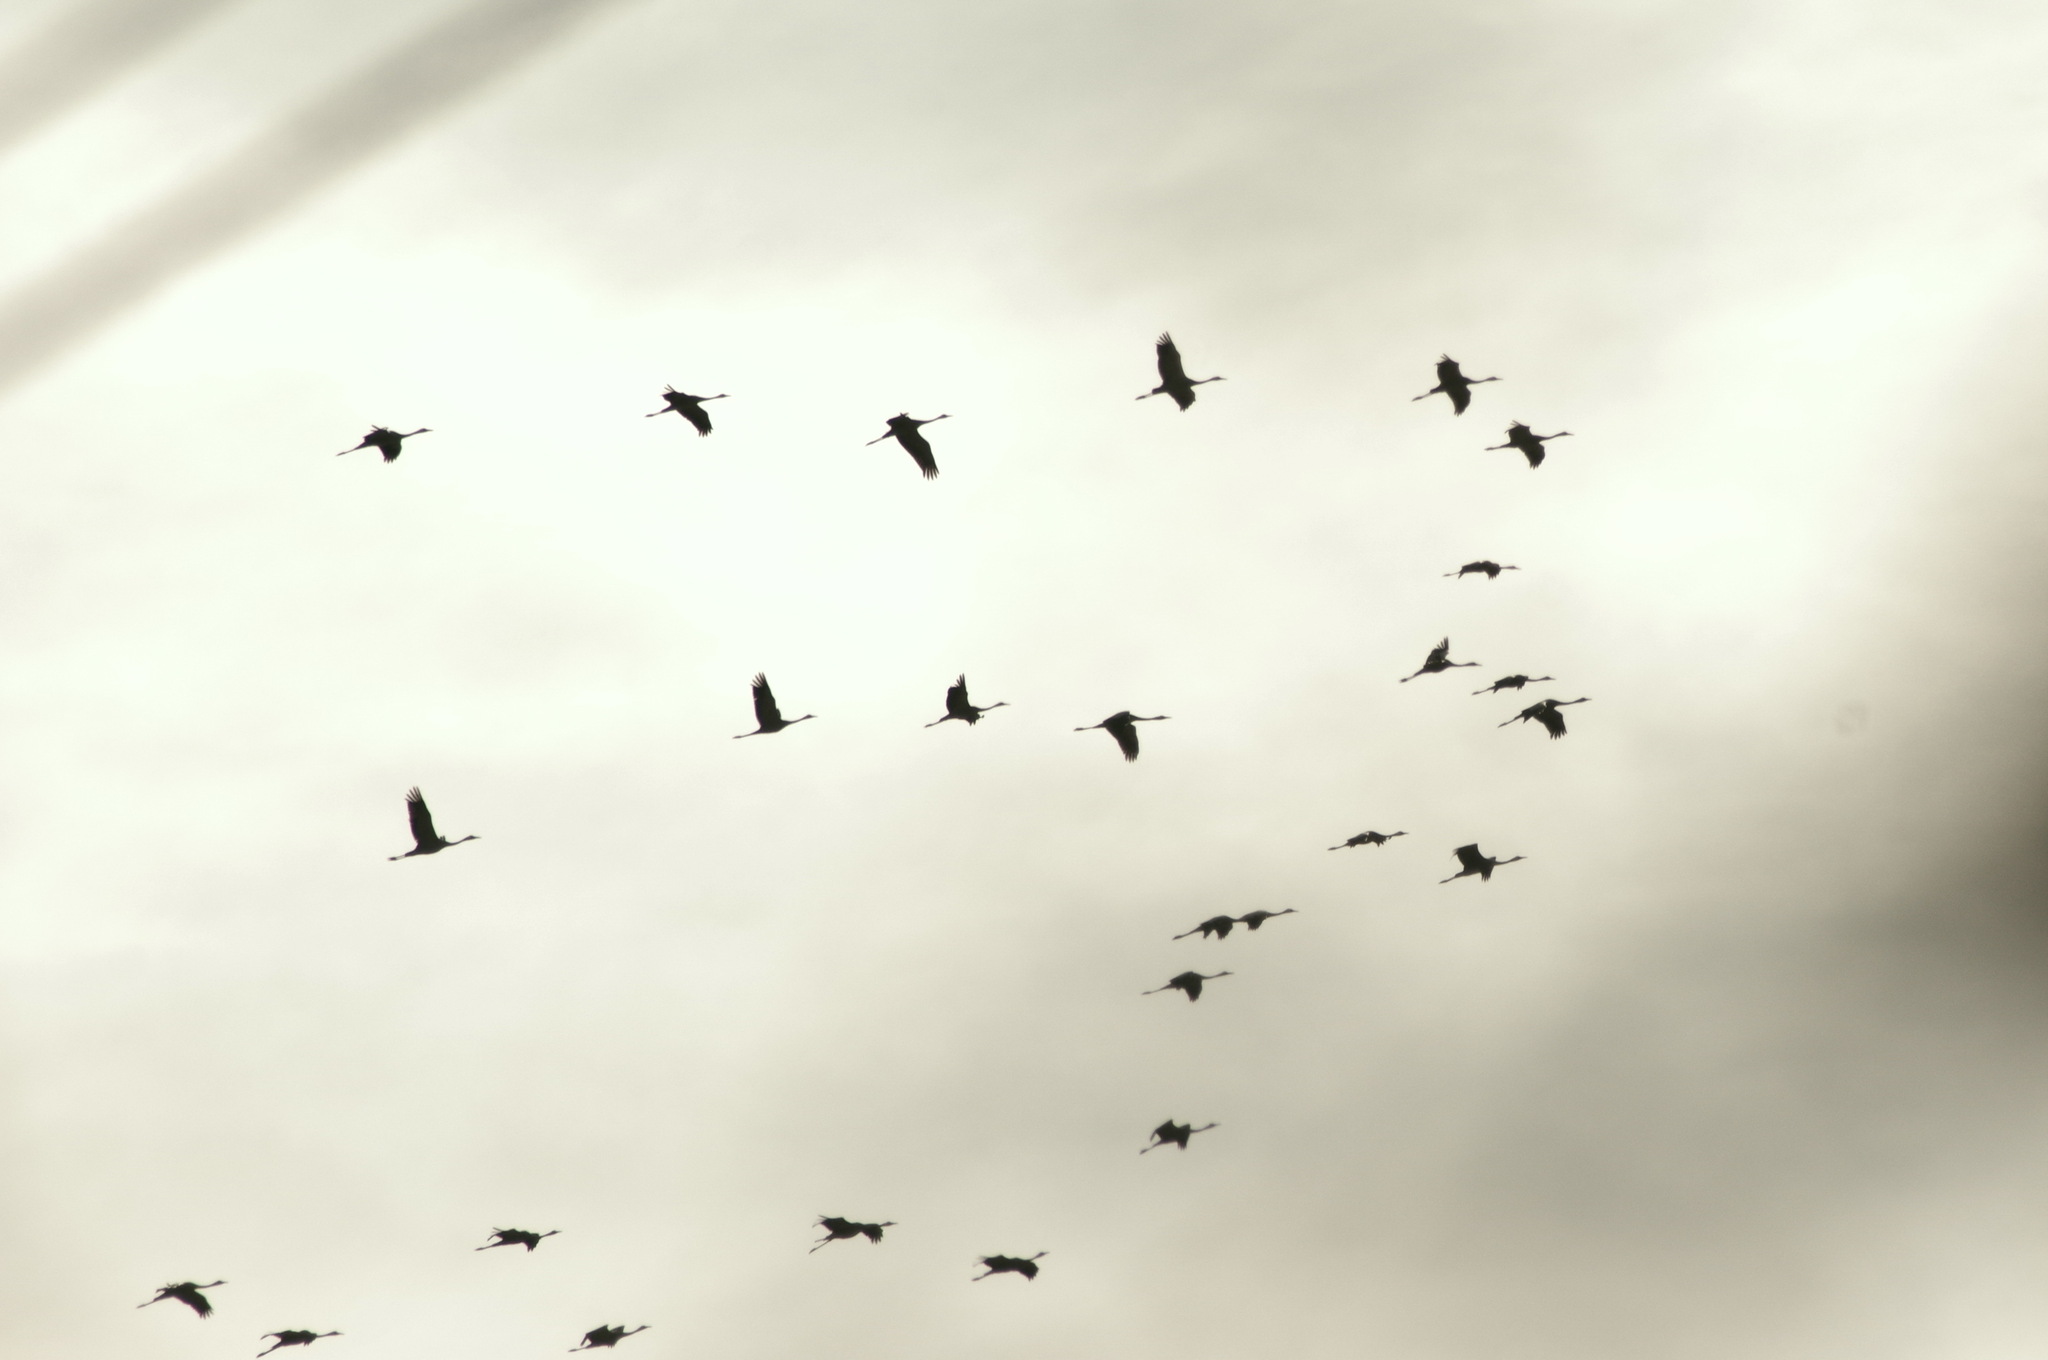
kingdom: Animalia
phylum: Chordata
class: Aves
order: Gruiformes
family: Gruidae
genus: Grus
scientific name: Grus grus
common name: Common crane
